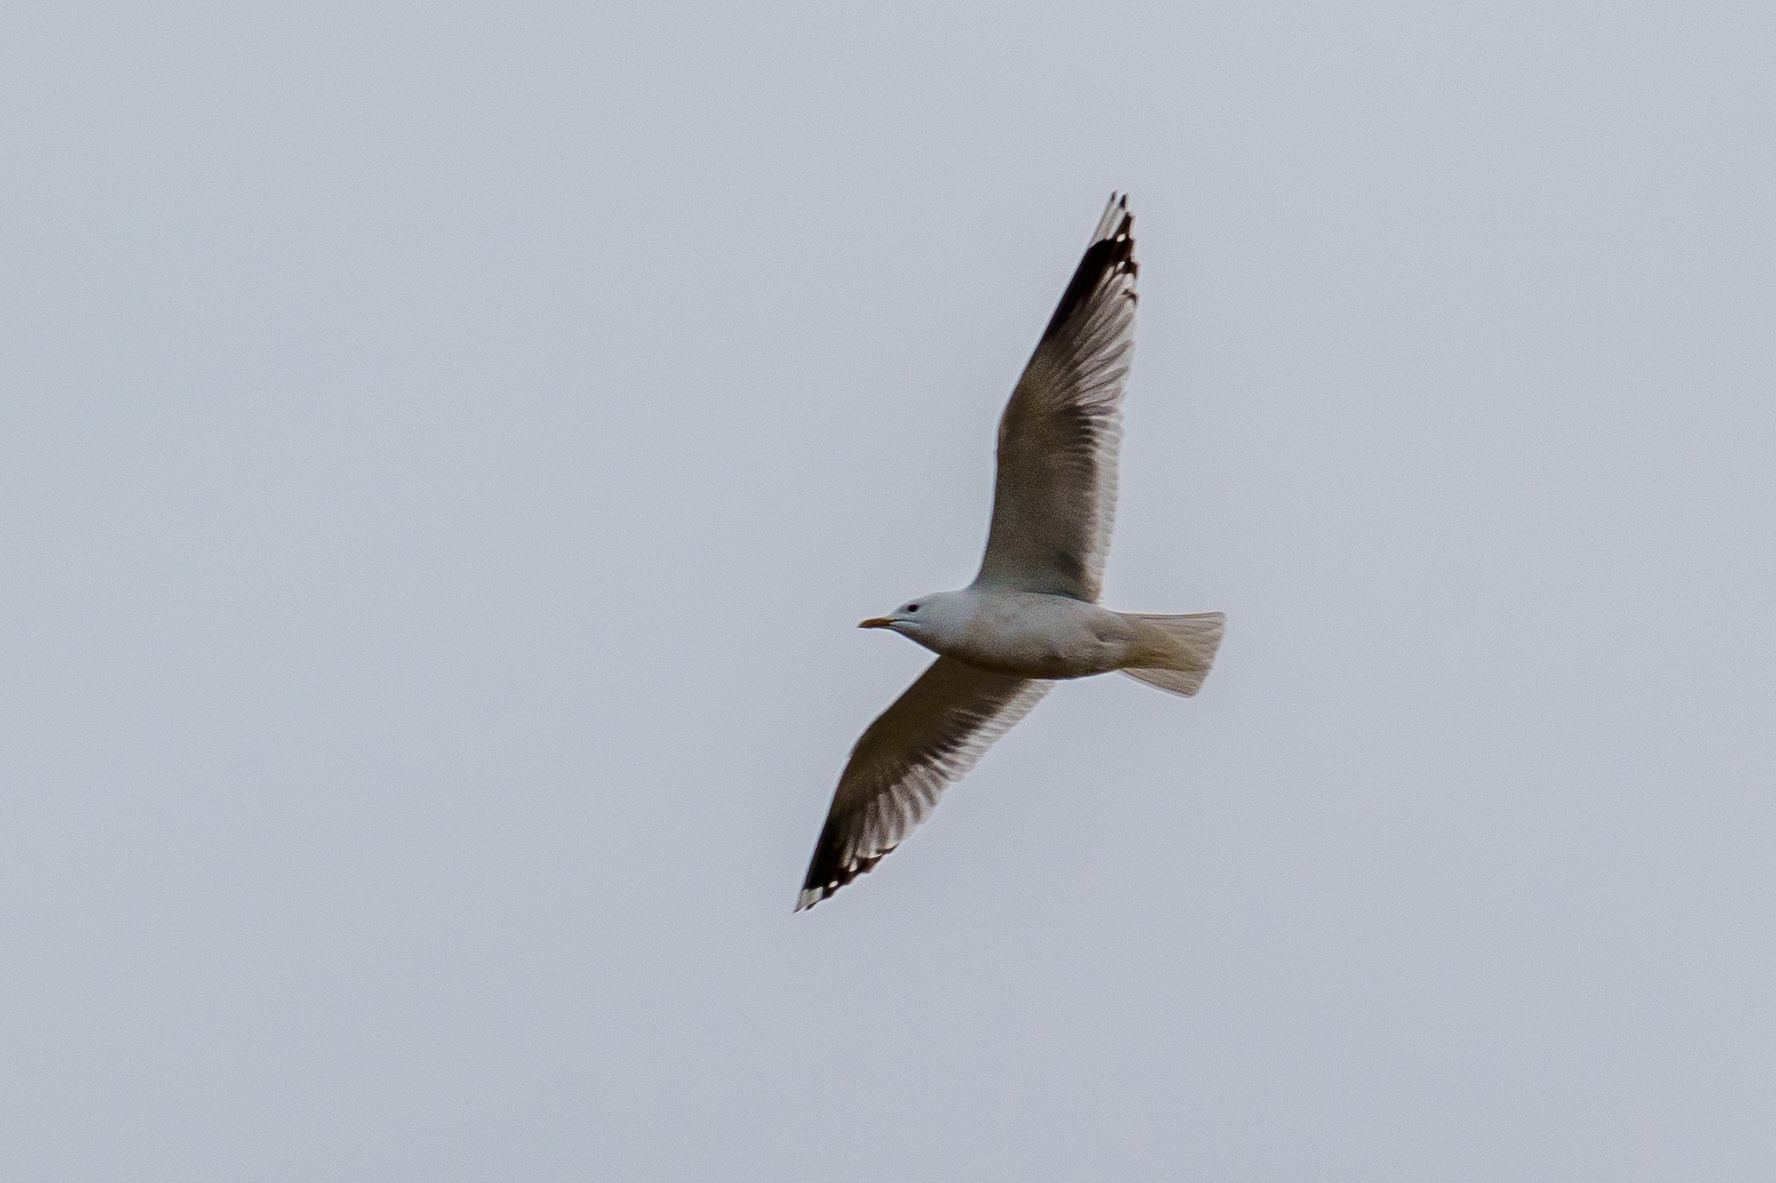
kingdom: Animalia
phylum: Chordata
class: Aves
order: Charadriiformes
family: Laridae
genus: Larus
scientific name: Larus canus
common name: Mew gull
